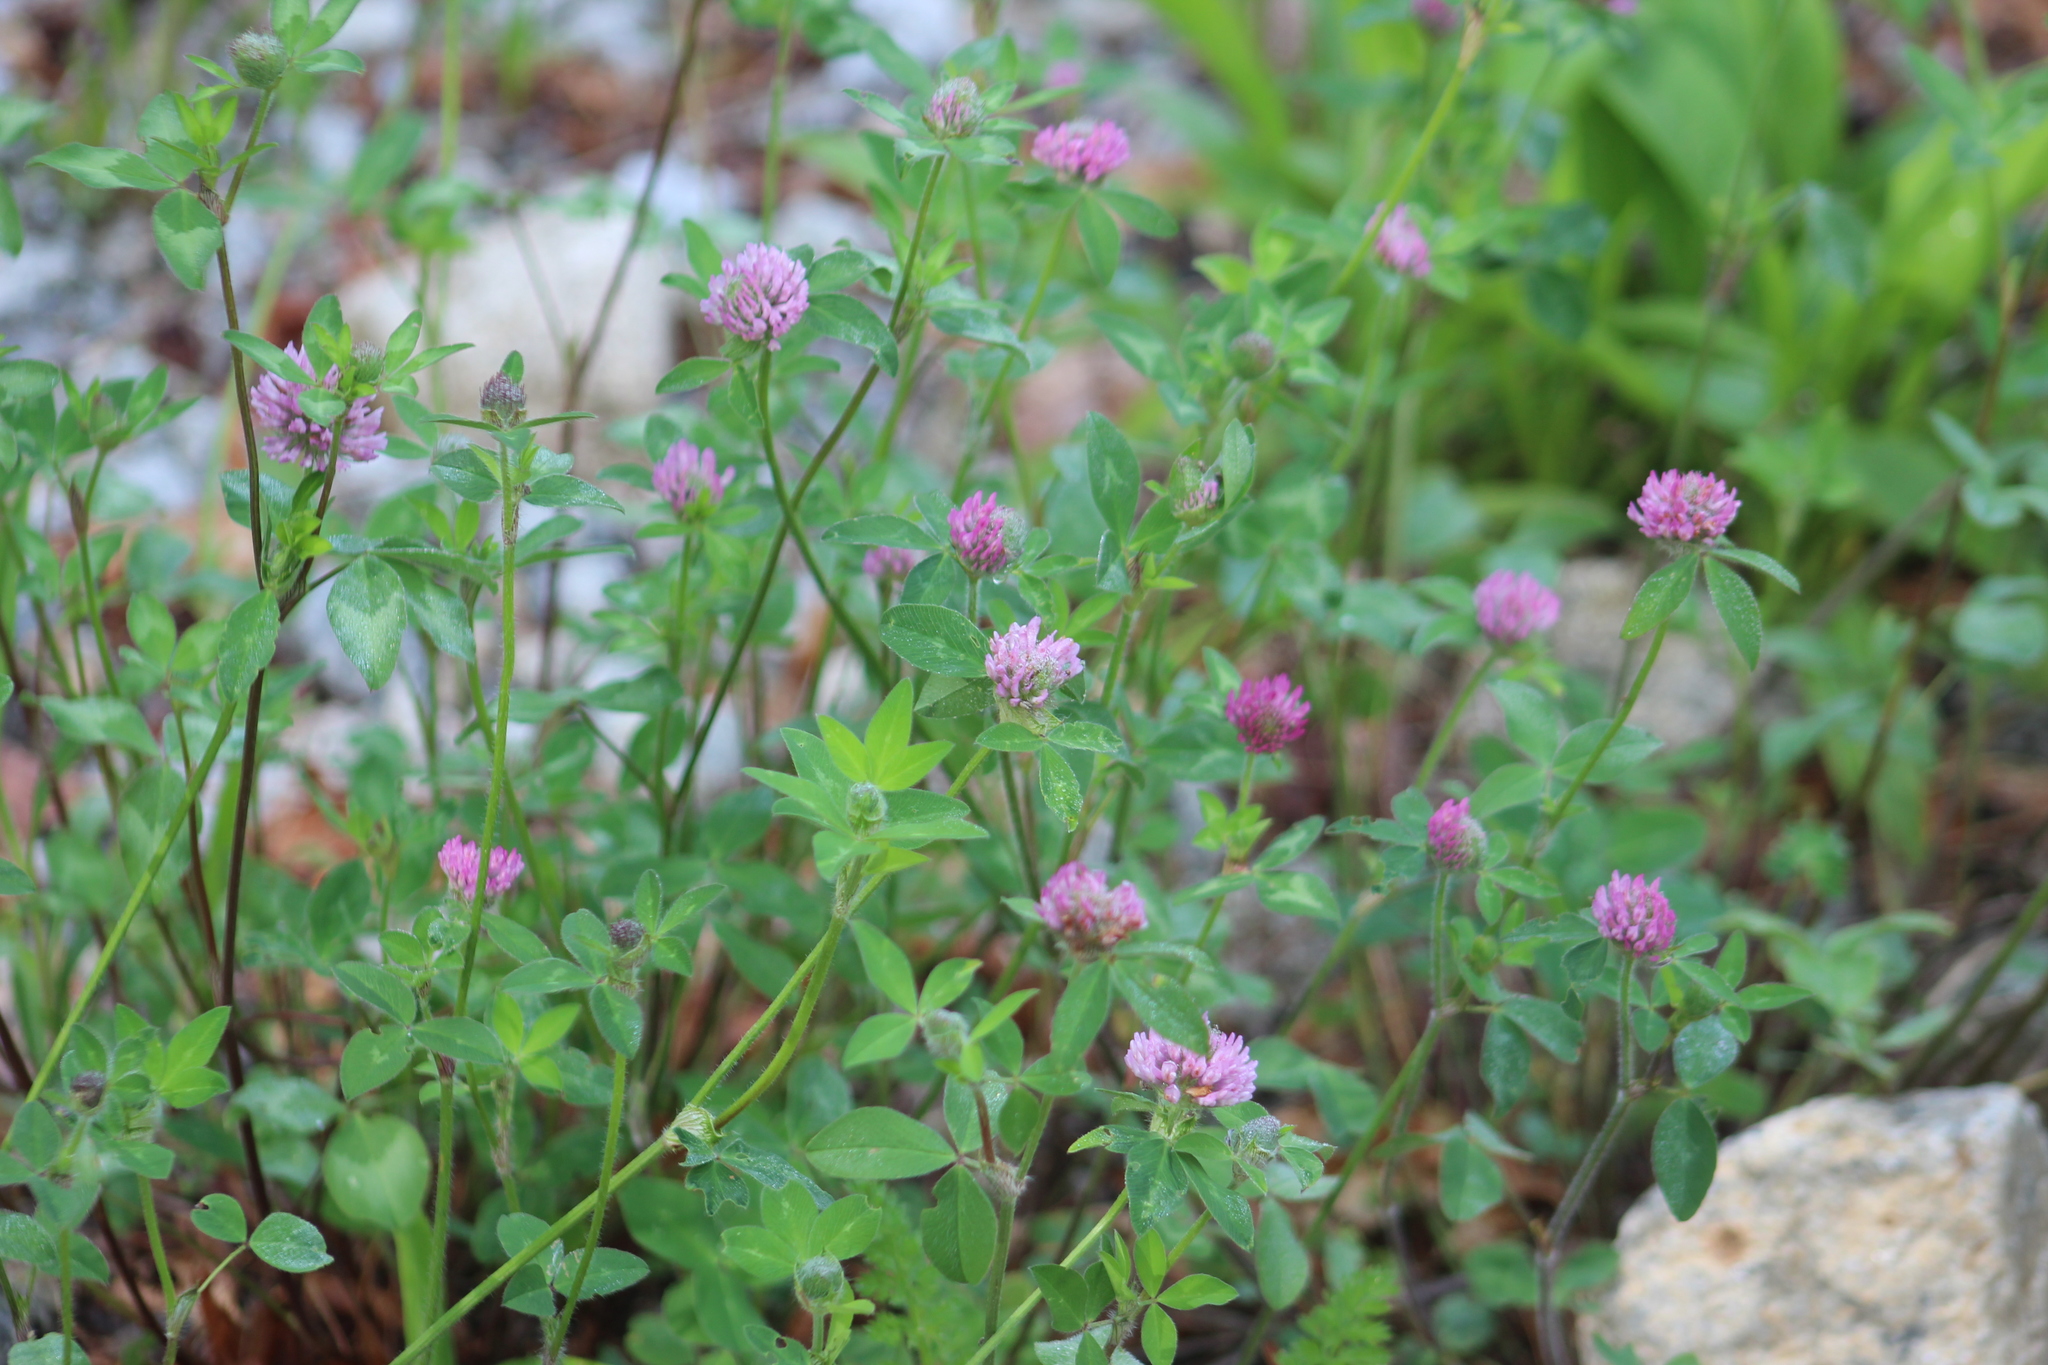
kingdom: Plantae
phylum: Tracheophyta
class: Magnoliopsida
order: Fabales
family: Fabaceae
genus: Trifolium
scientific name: Trifolium pratense
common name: Red clover
